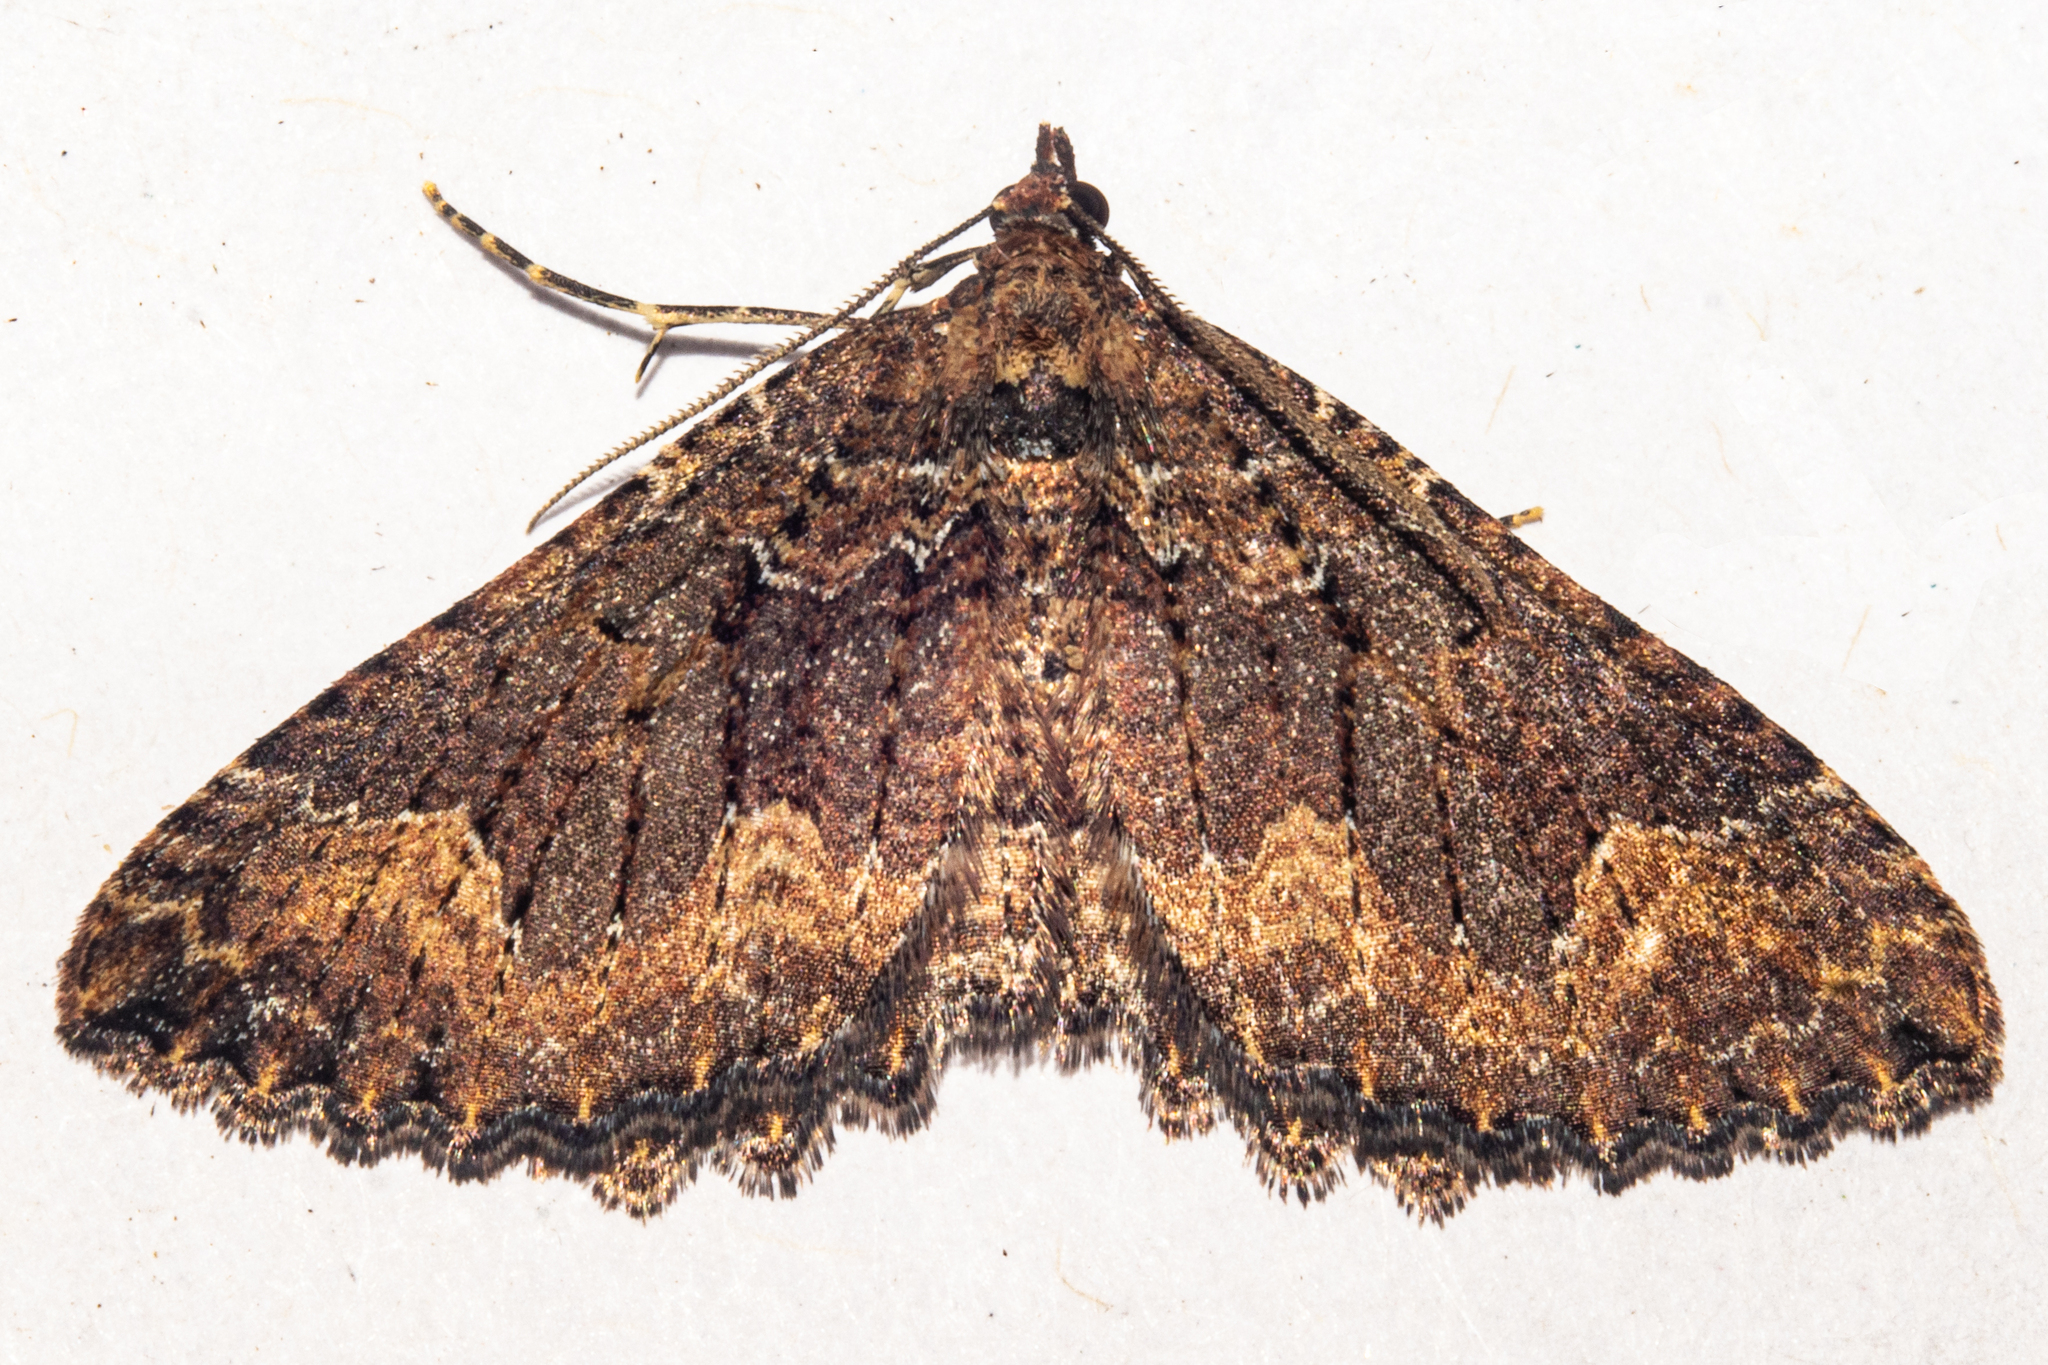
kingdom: Animalia
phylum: Arthropoda
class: Insecta
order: Lepidoptera
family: Geometridae
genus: Austrocidaria
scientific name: Austrocidaria cedrinodes
